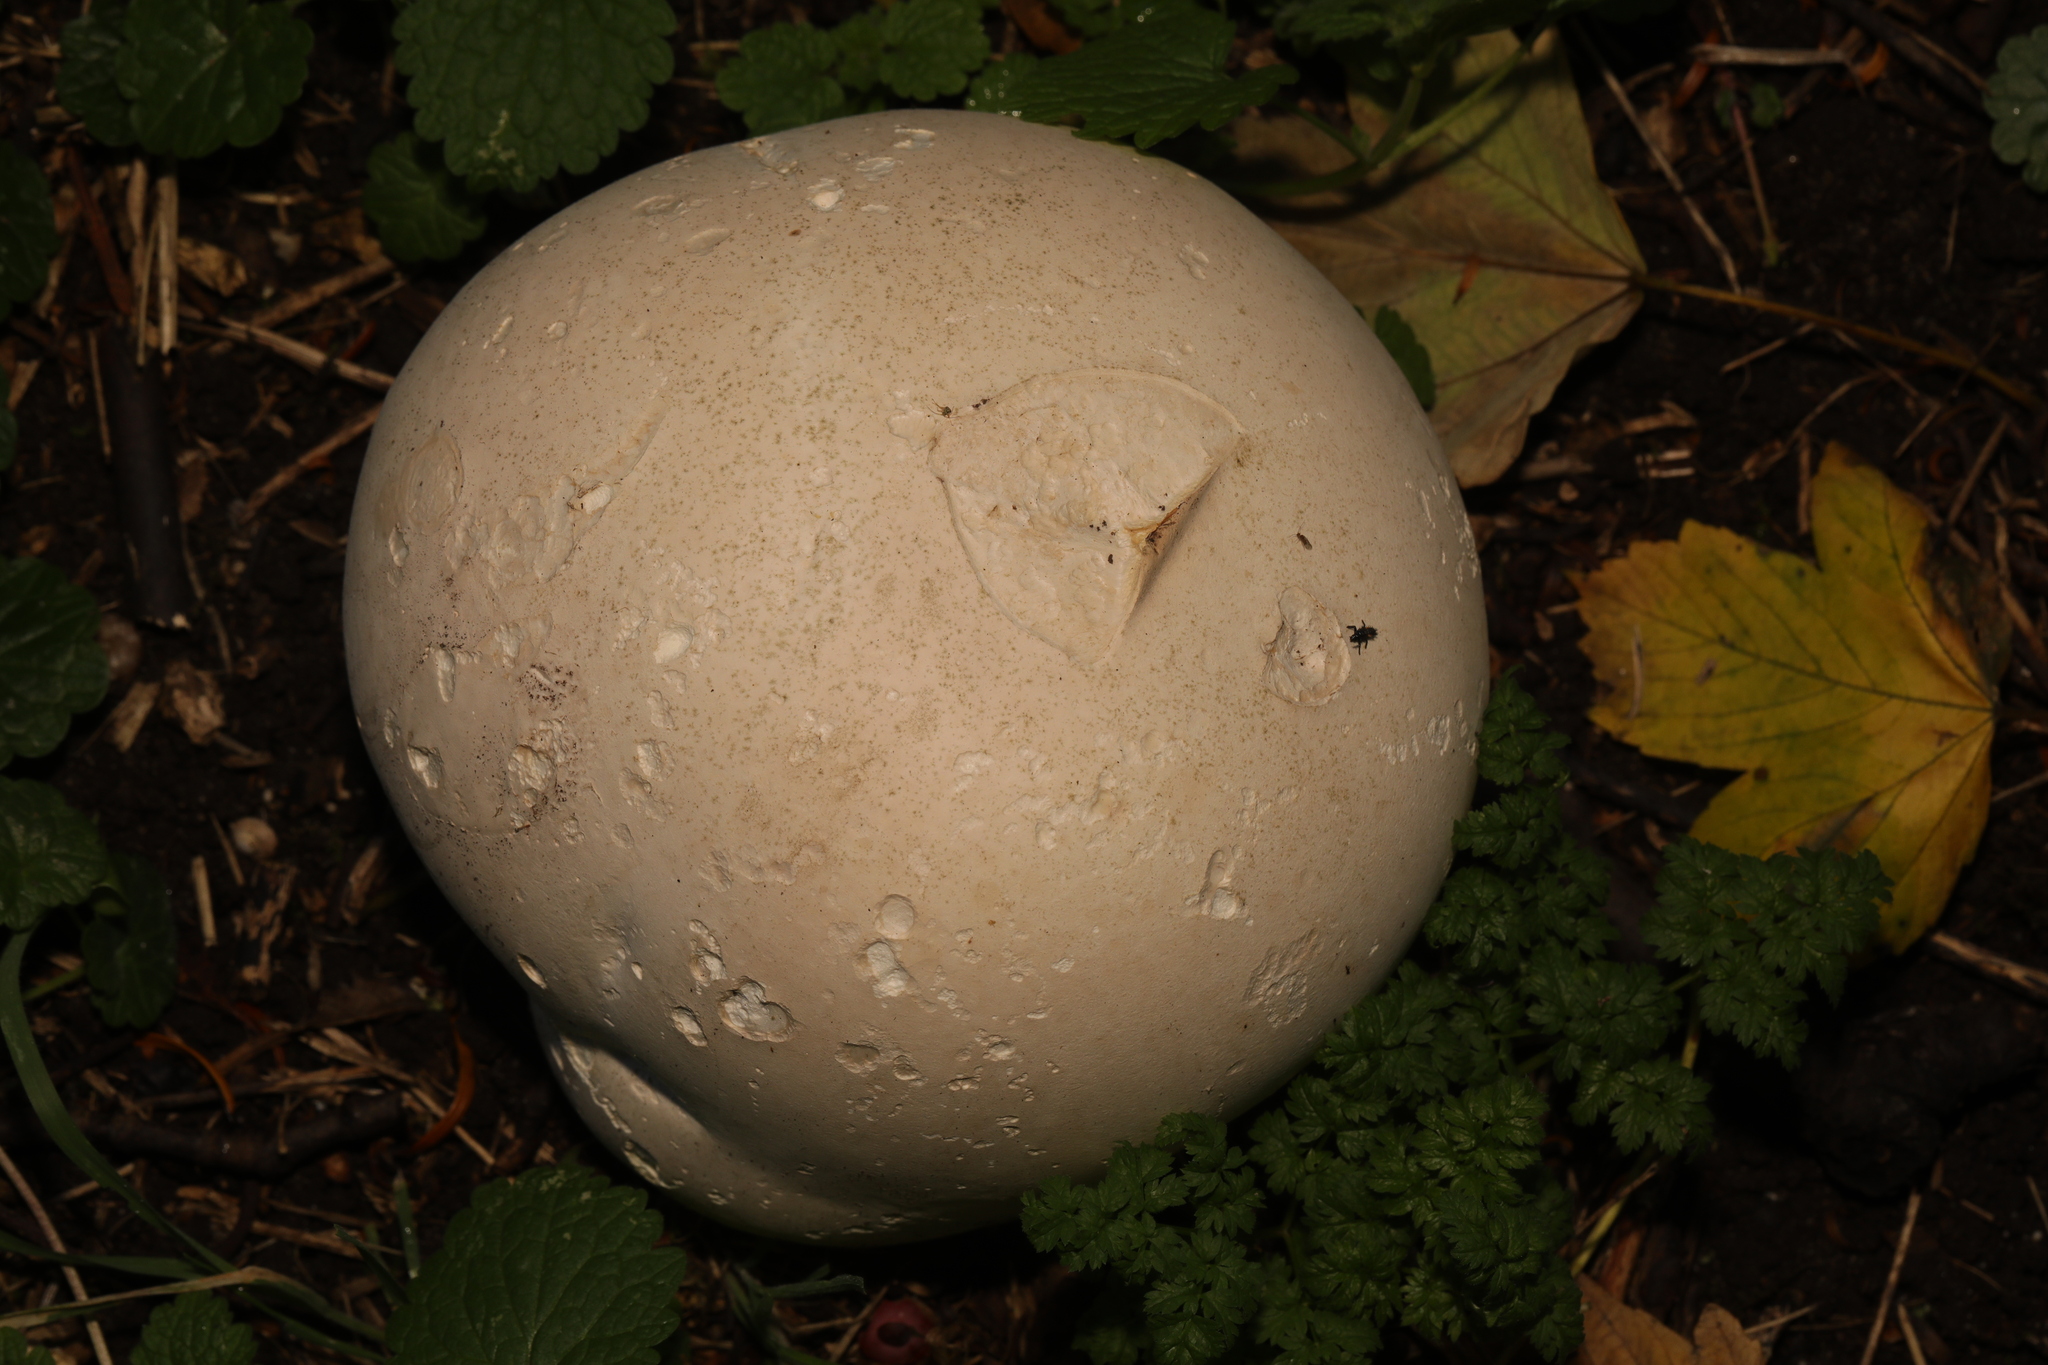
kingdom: Fungi
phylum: Basidiomycota
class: Agaricomycetes
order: Agaricales
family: Lycoperdaceae
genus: Calvatia
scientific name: Calvatia gigantea
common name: Giant puffball
